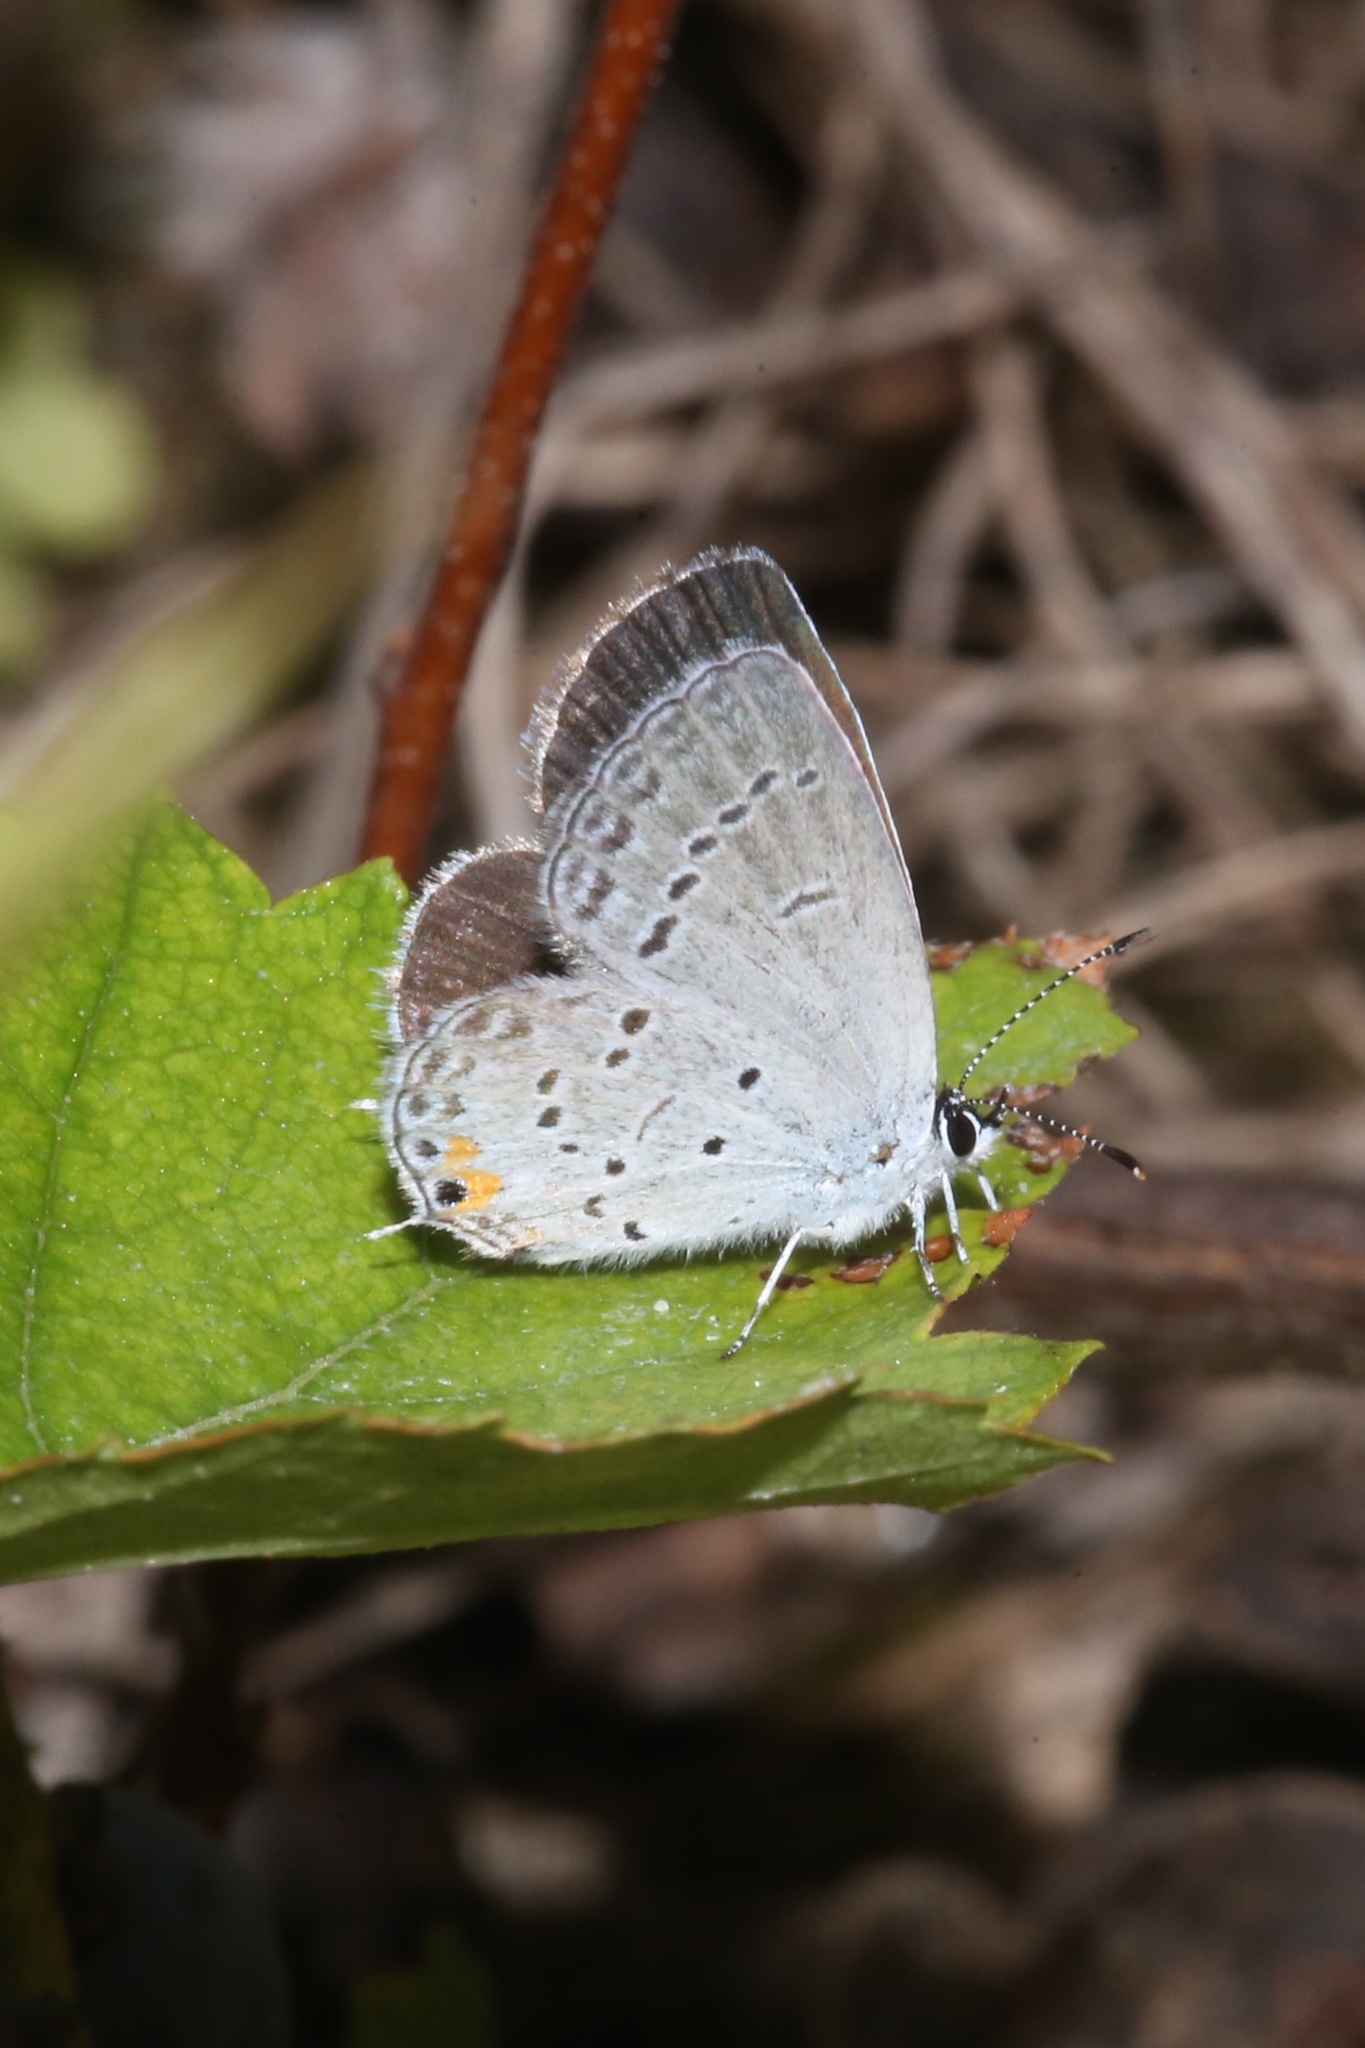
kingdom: Animalia
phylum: Arthropoda
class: Insecta
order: Lepidoptera
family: Lycaenidae
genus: Elkalyce
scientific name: Elkalyce comyntas
